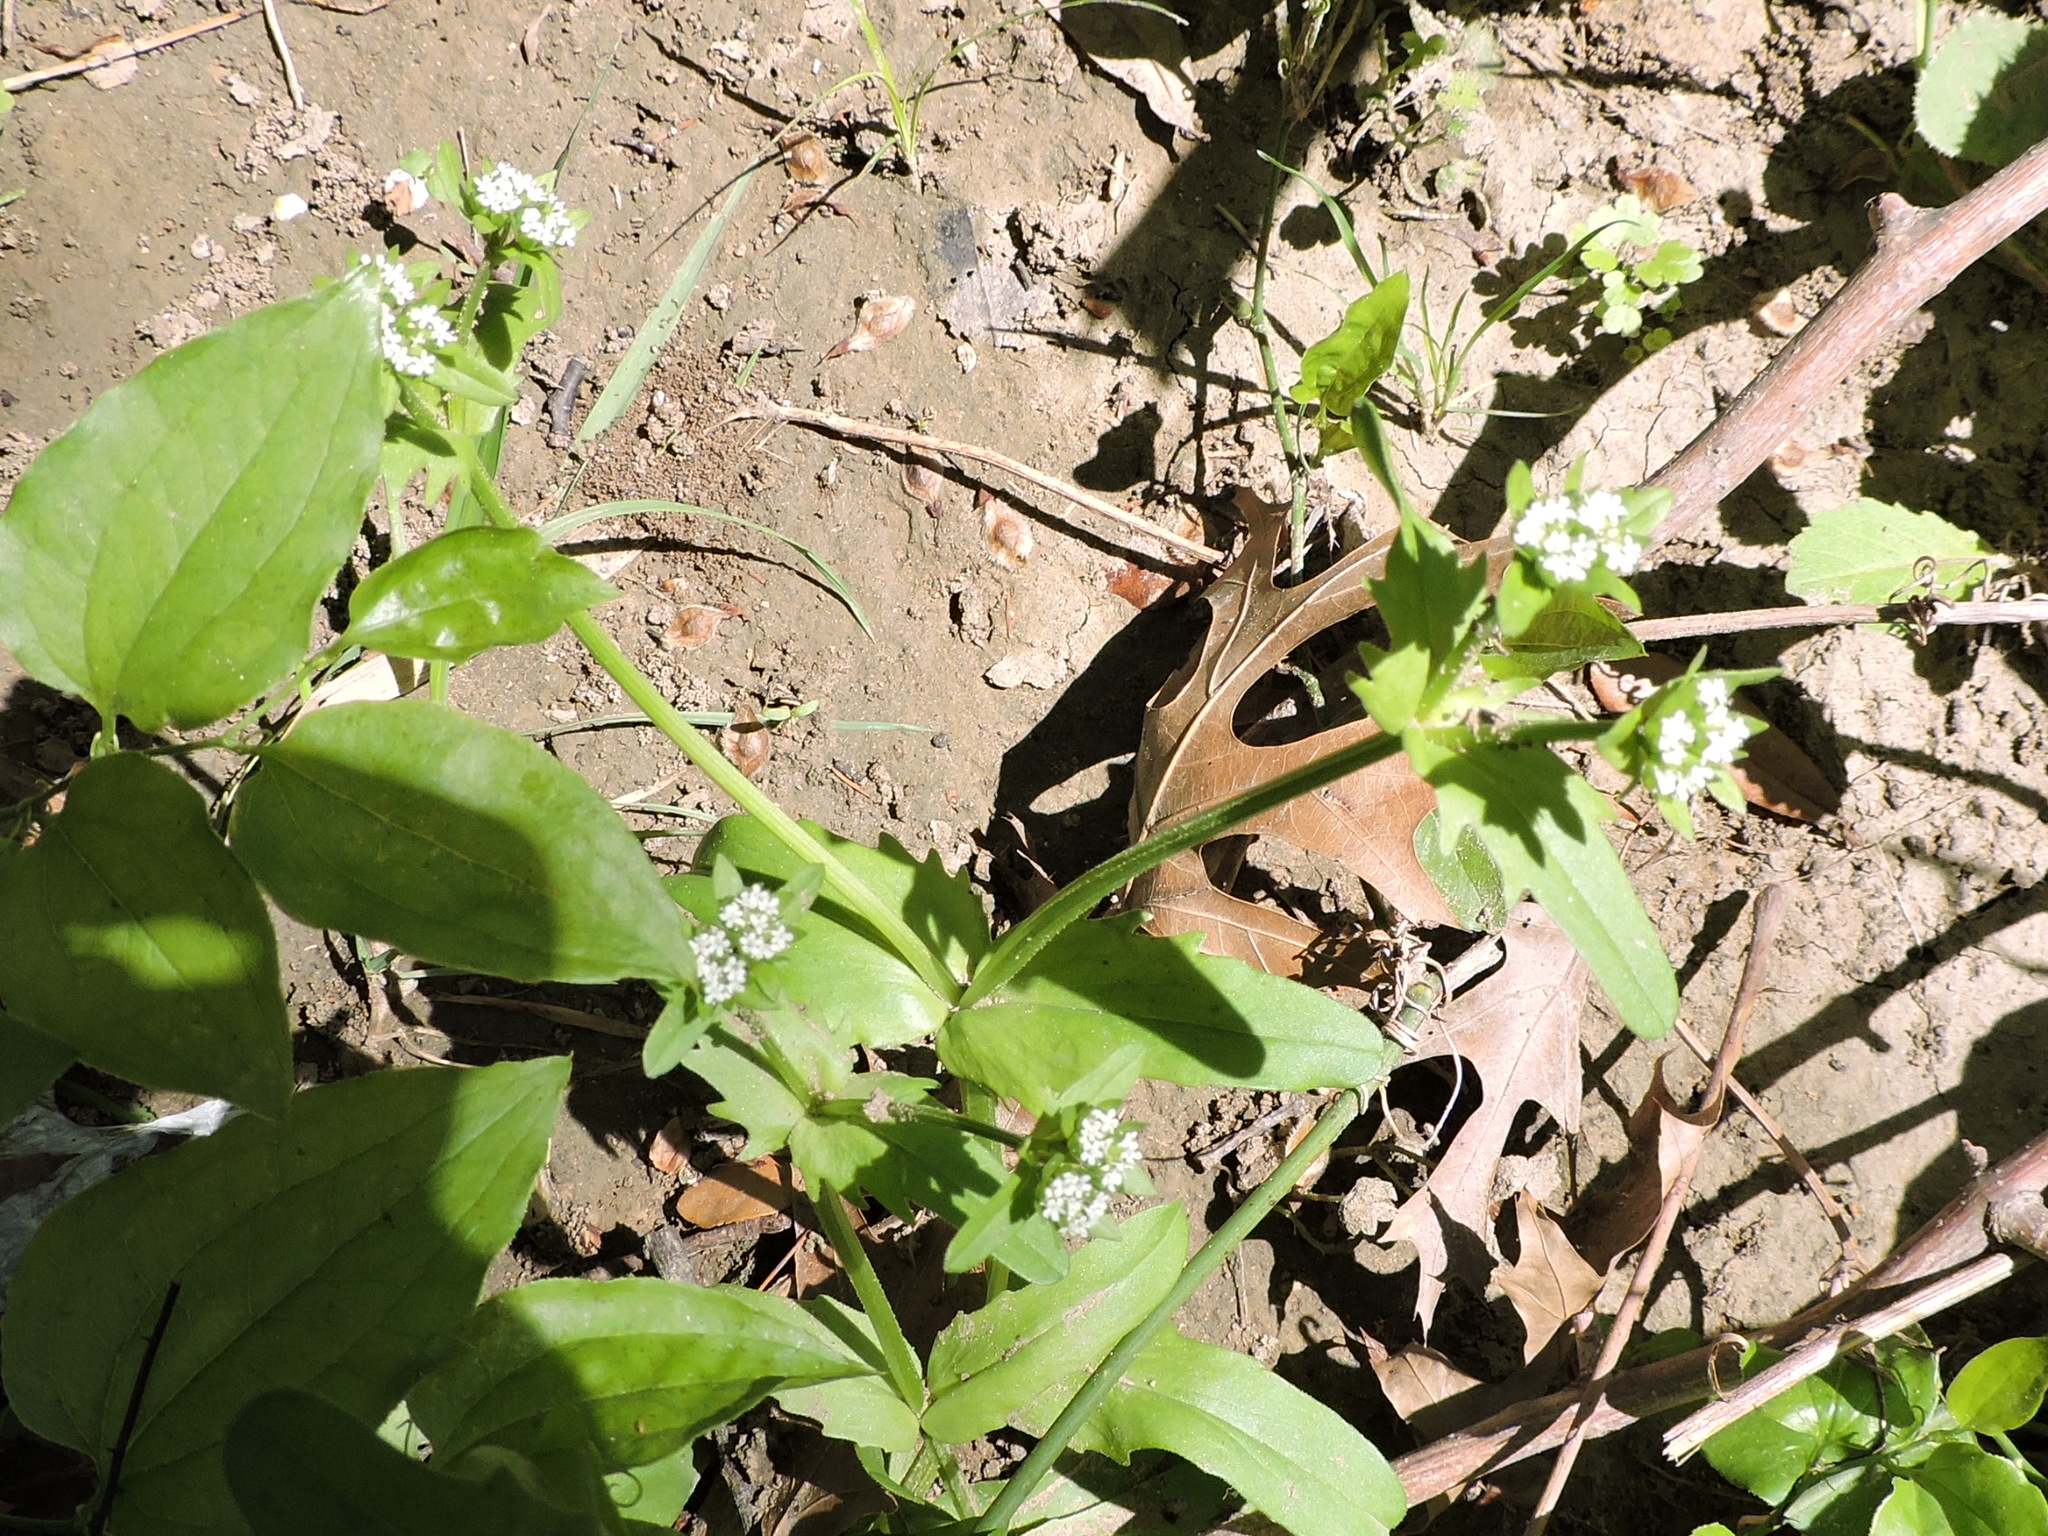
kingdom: Plantae
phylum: Tracheophyta
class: Magnoliopsida
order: Dipsacales
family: Caprifoliaceae
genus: Valerianella
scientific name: Valerianella radiata
